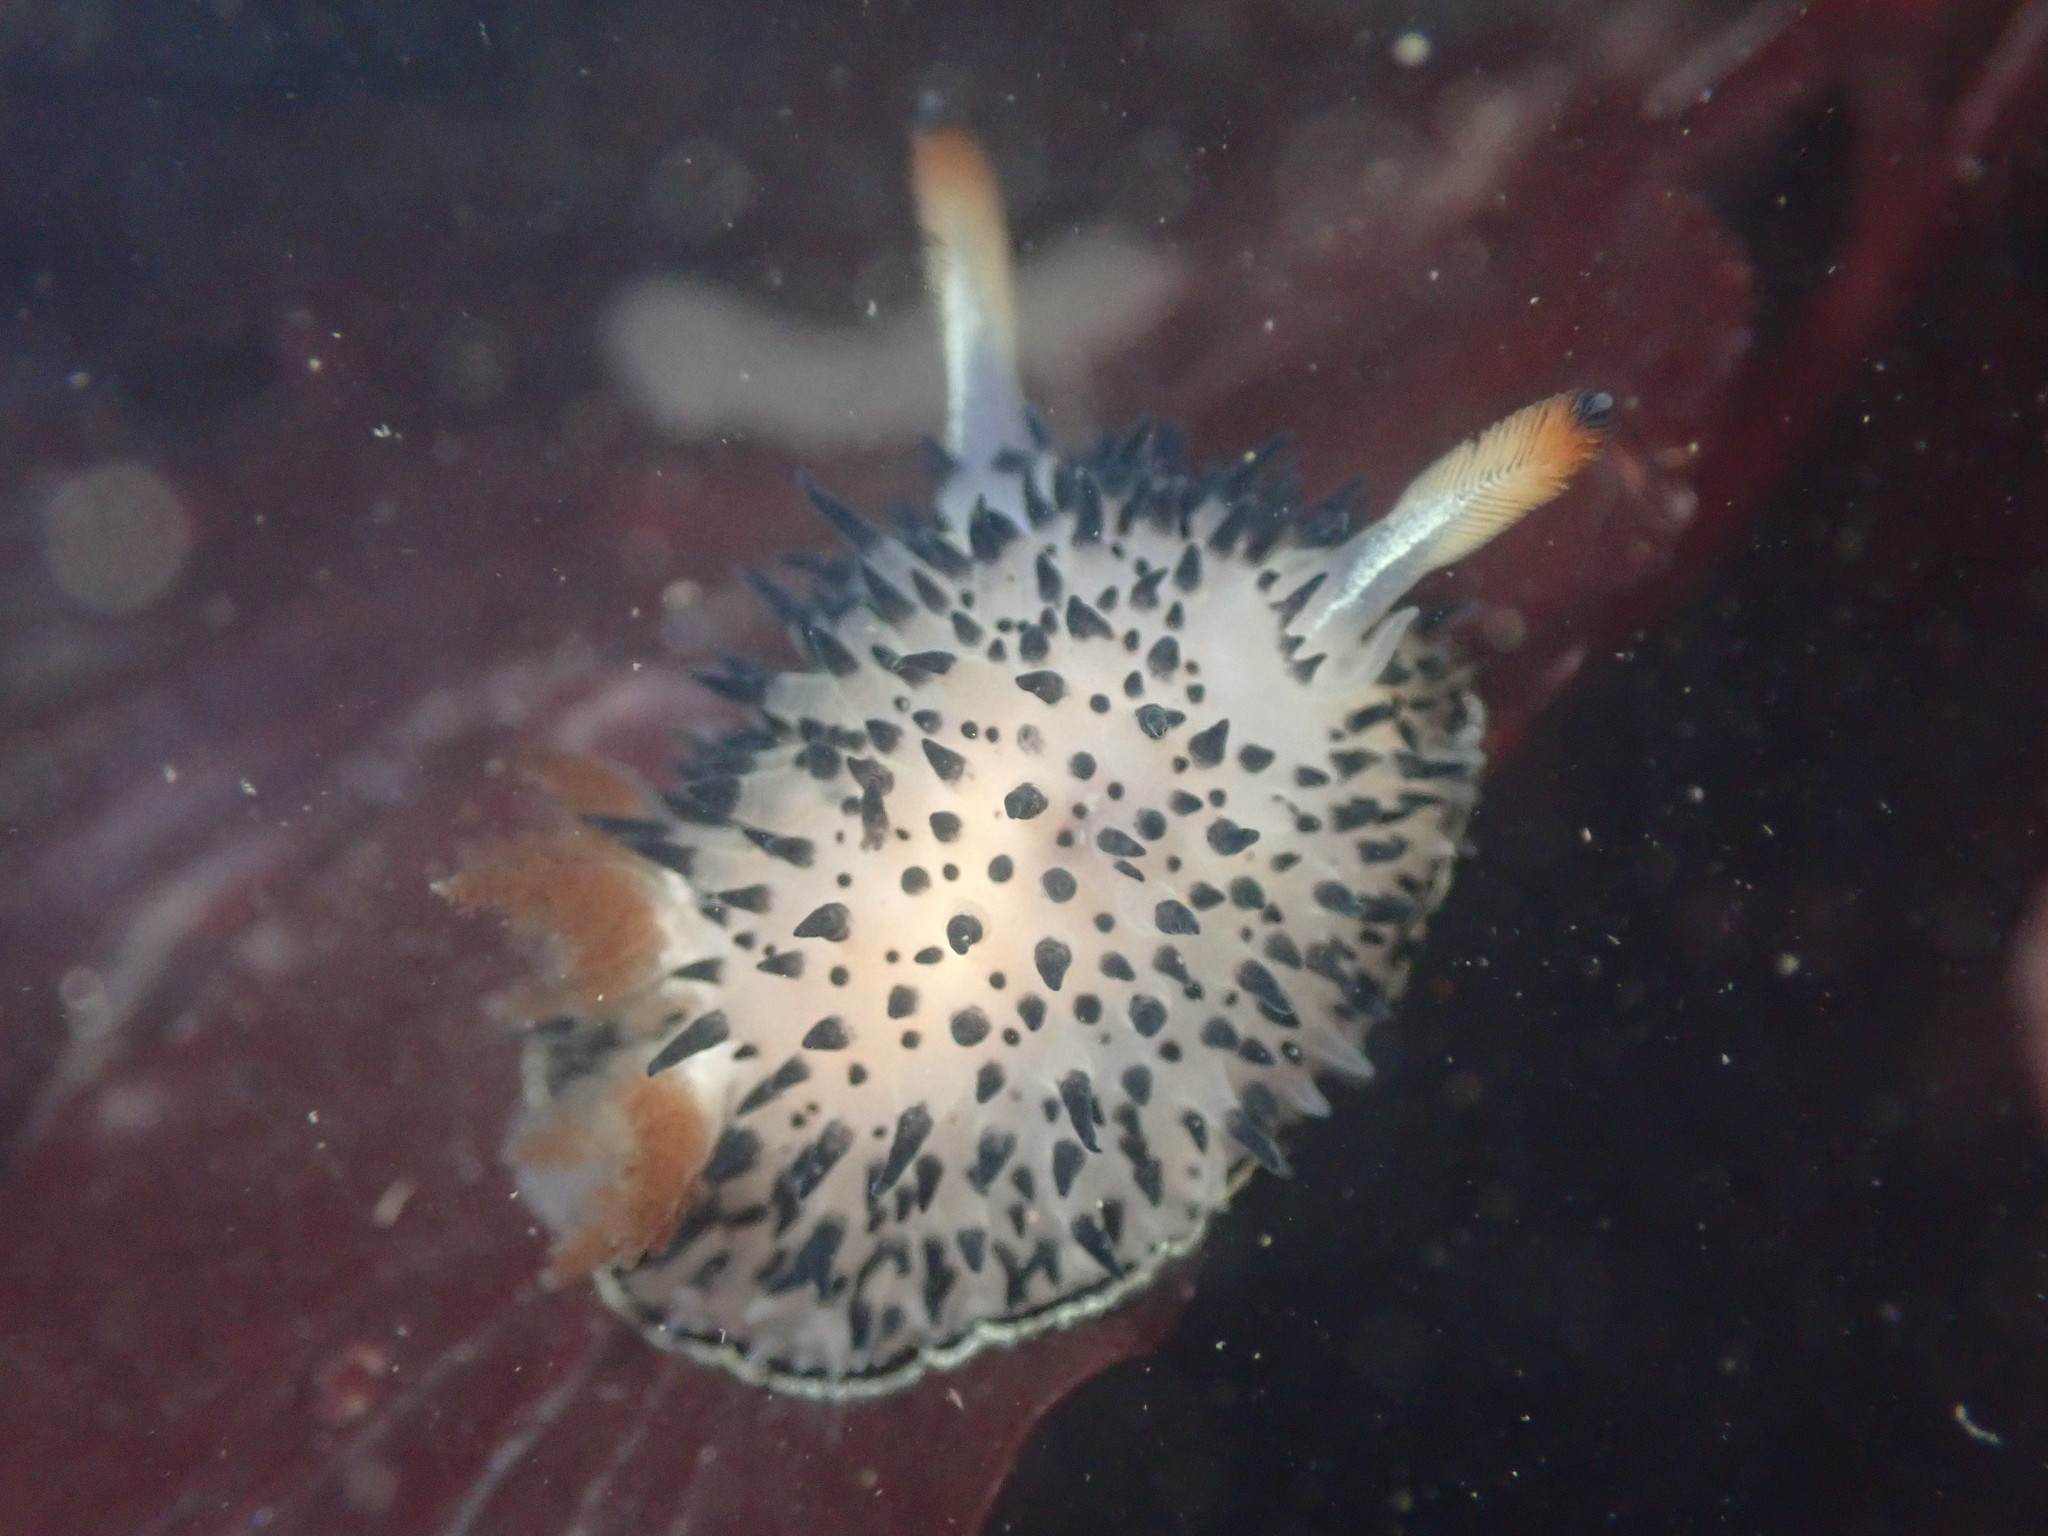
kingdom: Animalia
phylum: Mollusca
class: Gastropoda
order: Nudibranchia
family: Onchidorididae
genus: Acanthodoris
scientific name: Acanthodoris rhodoceras
